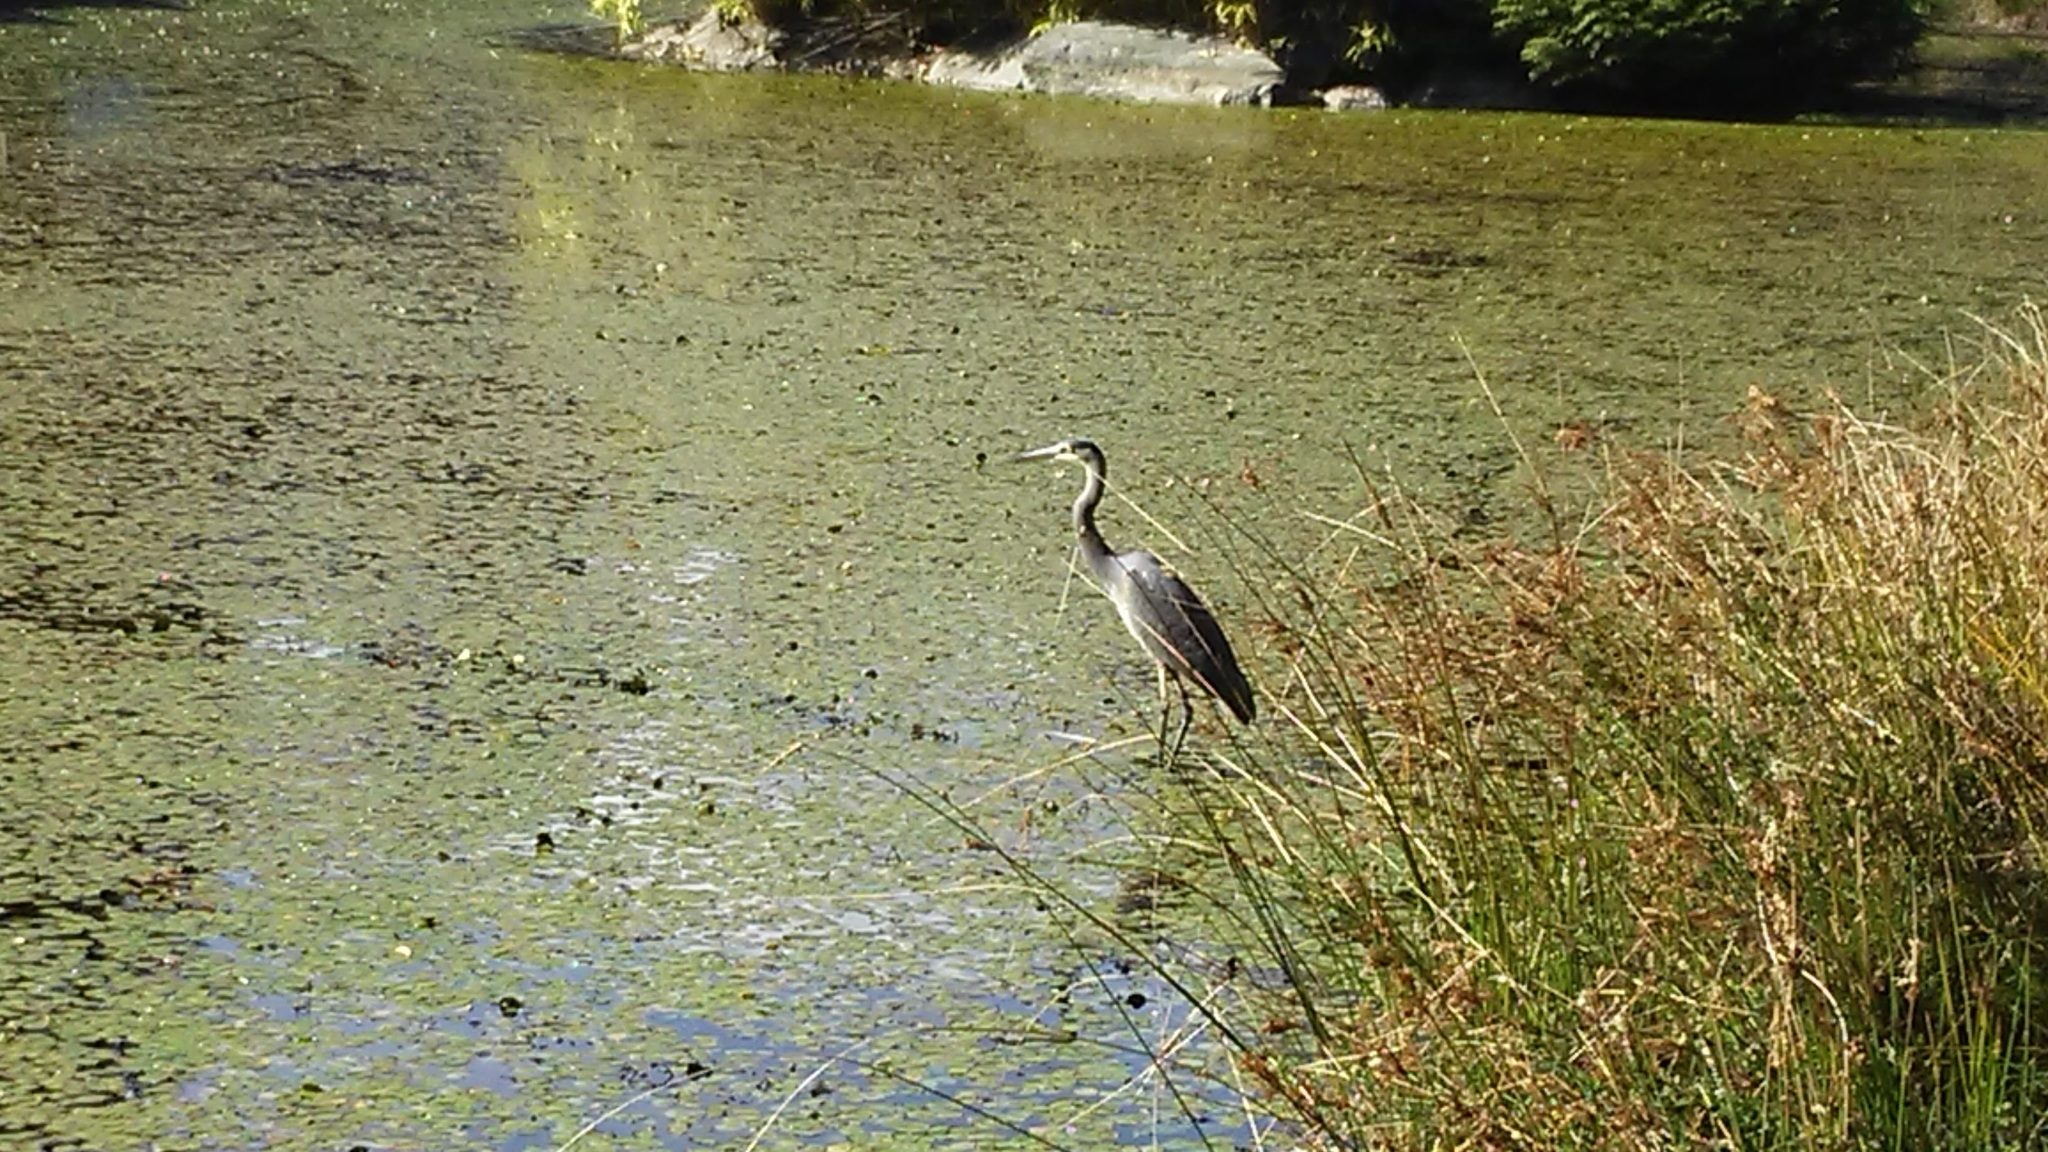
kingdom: Animalia
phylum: Chordata
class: Aves
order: Pelecaniformes
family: Ardeidae
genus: Ardea
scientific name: Ardea herodias
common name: Great blue heron
